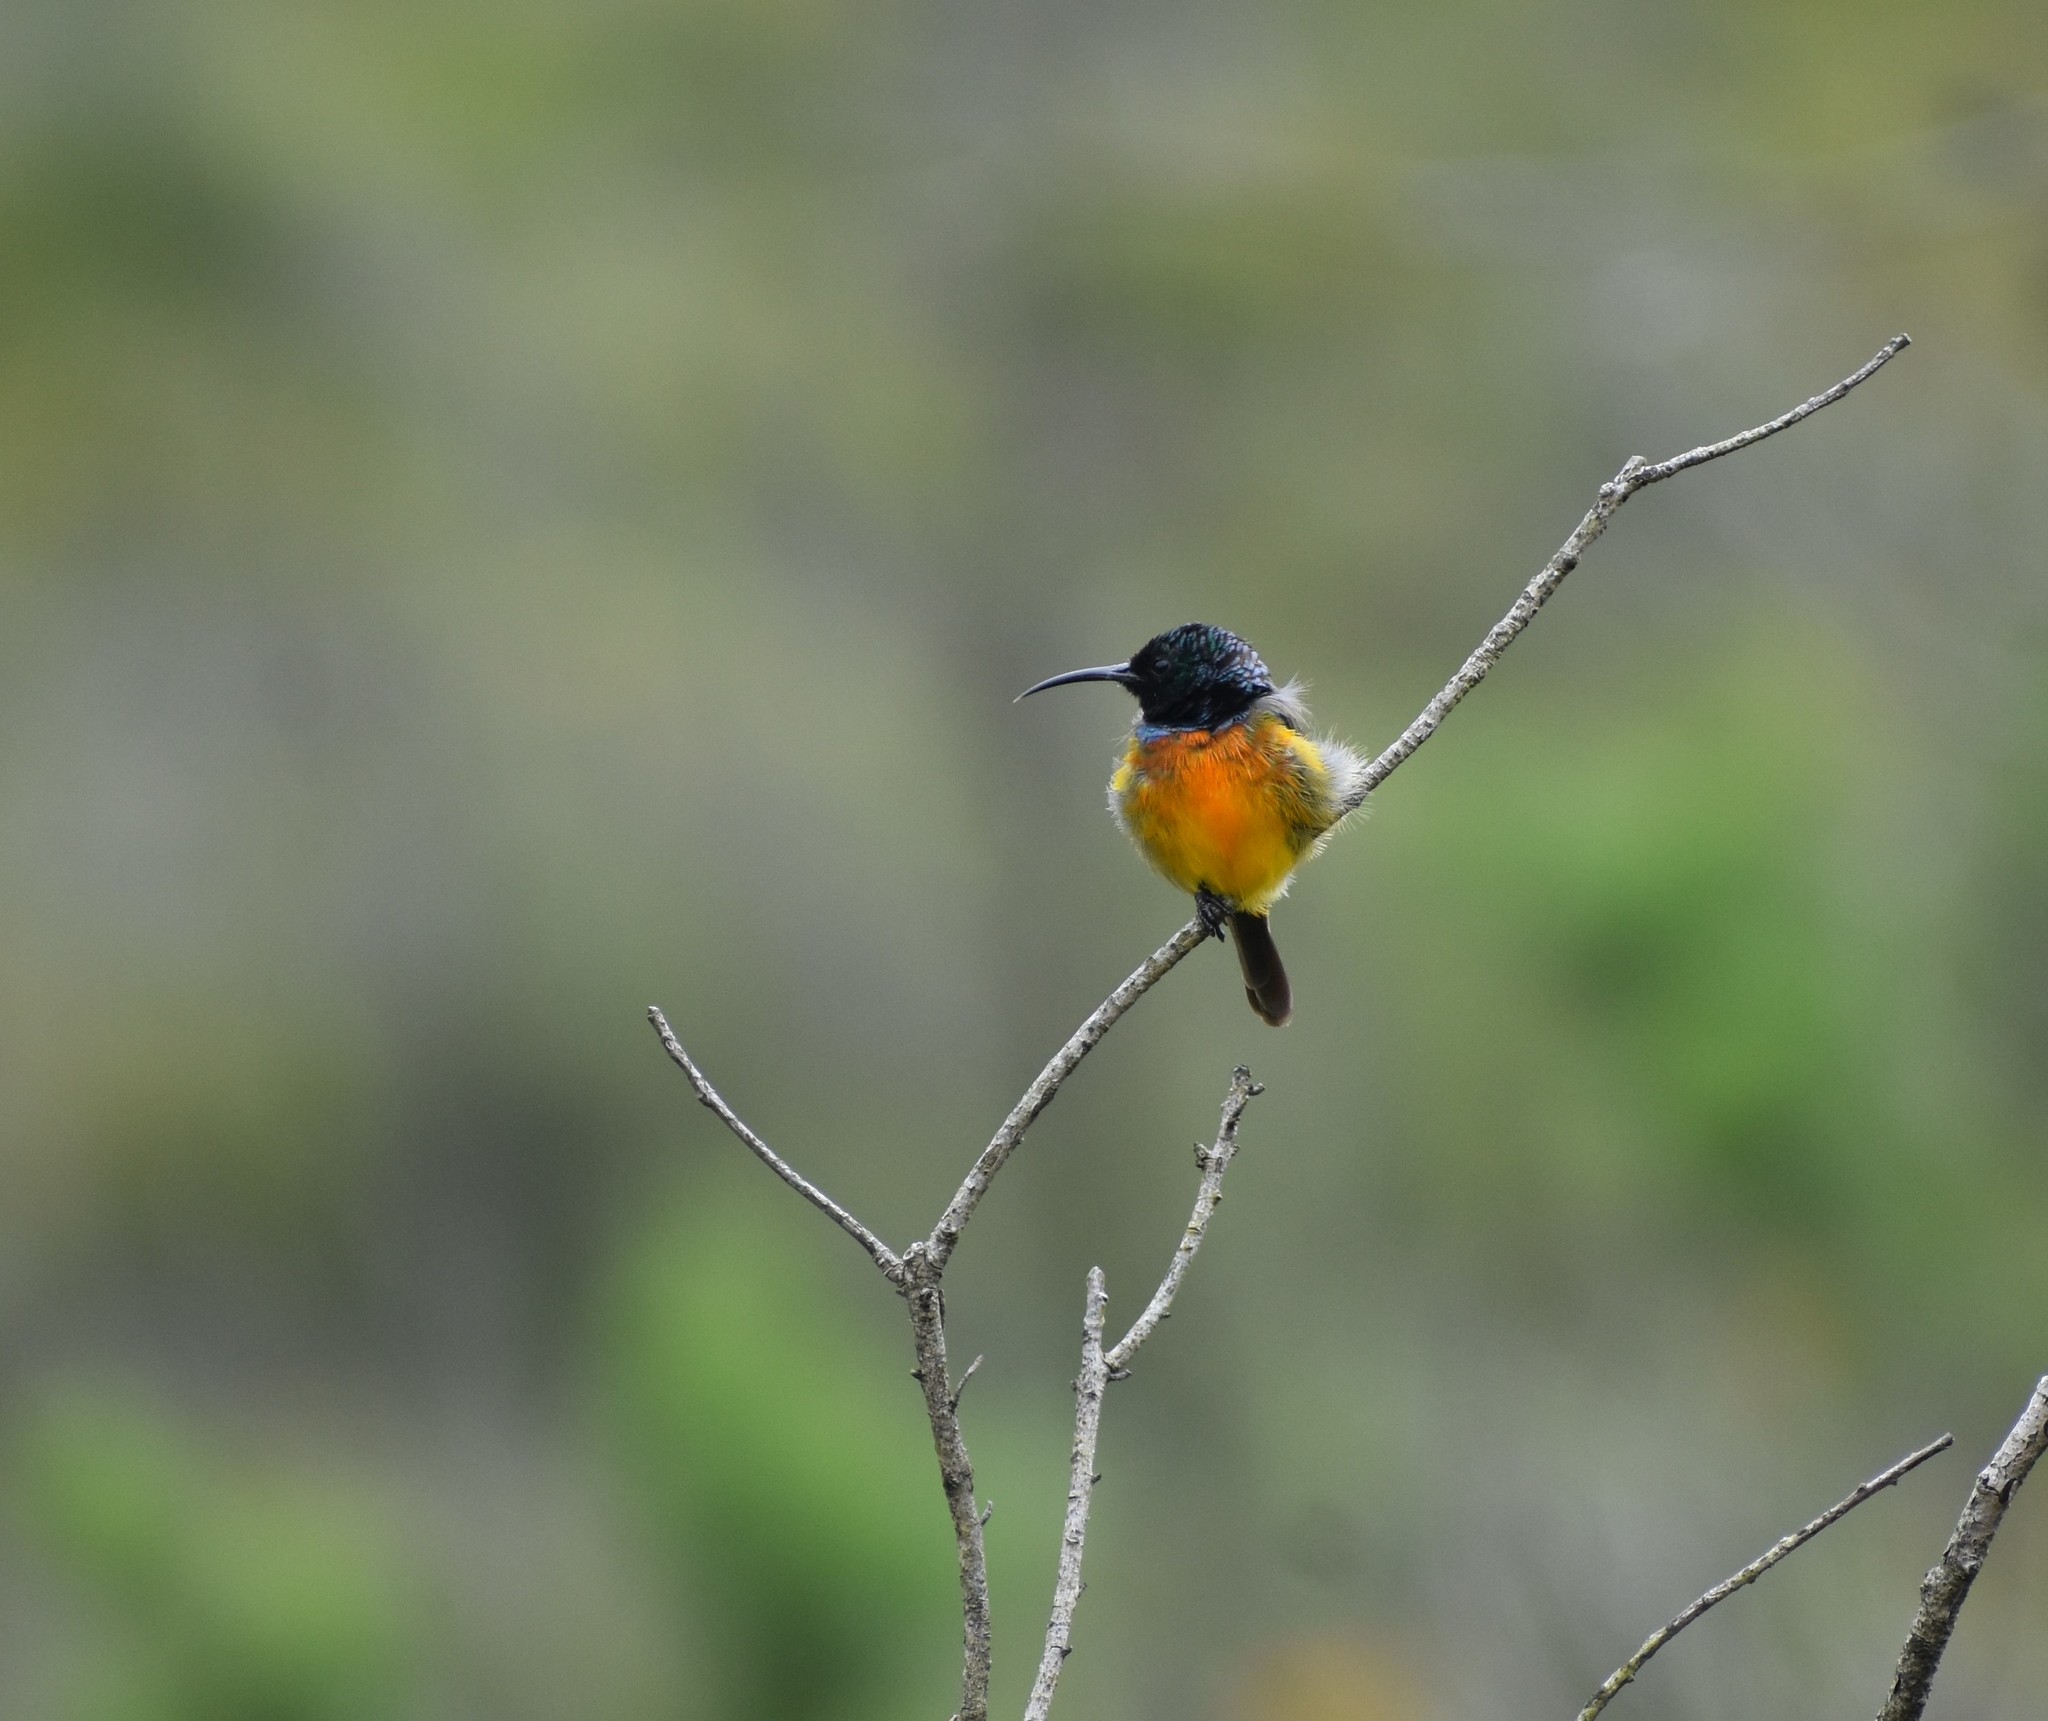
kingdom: Animalia
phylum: Chordata
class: Aves
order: Passeriformes
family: Nectariniidae
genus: Anthobaphes
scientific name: Anthobaphes violacea
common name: Orange-breasted sunbird
